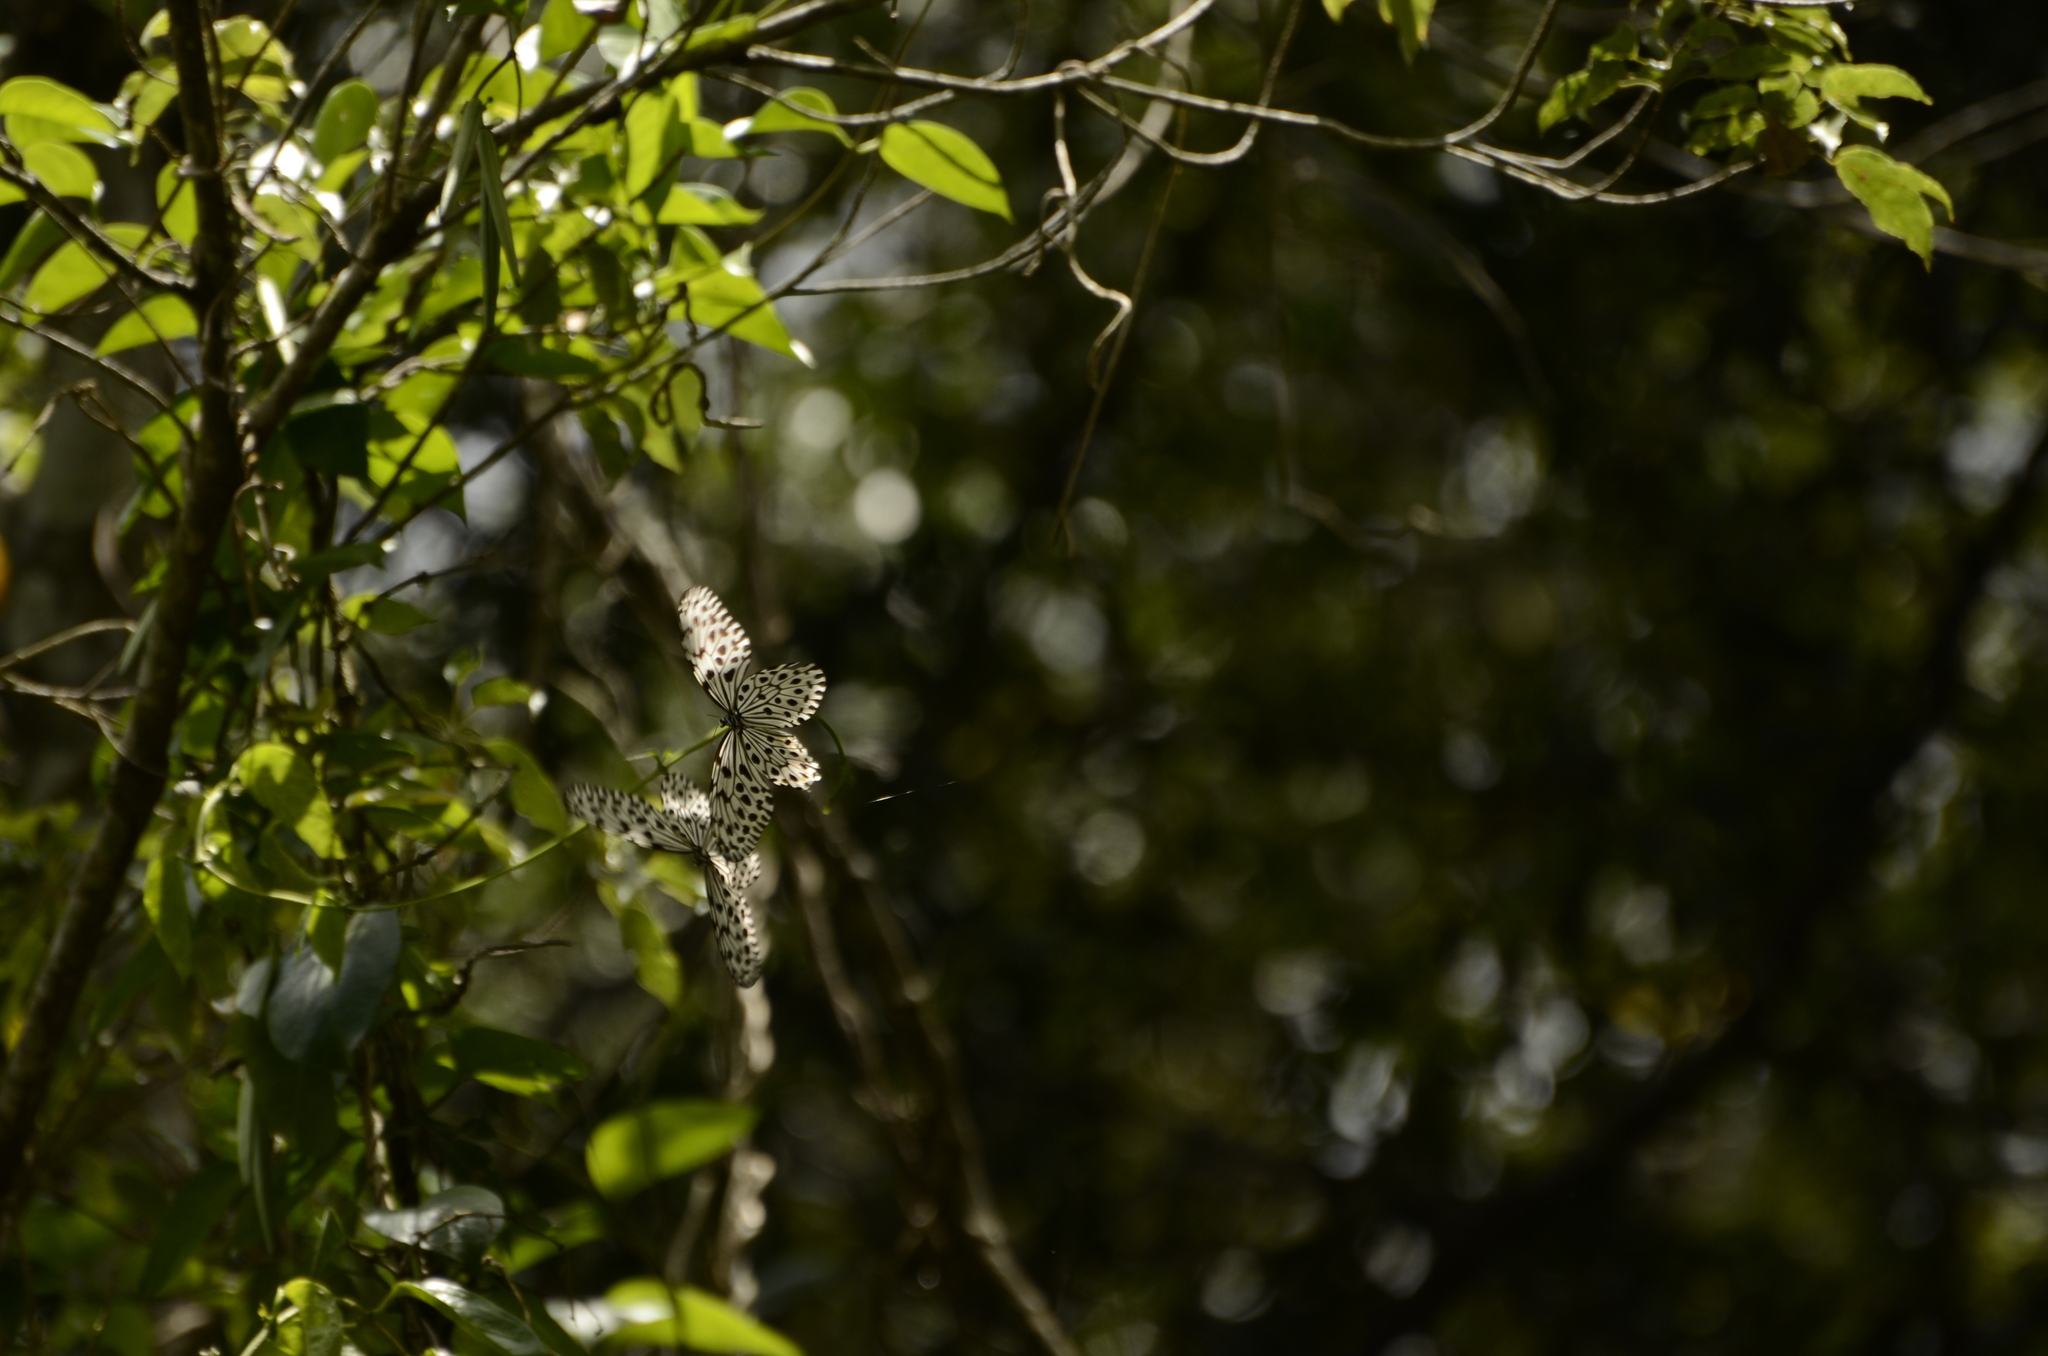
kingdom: Animalia
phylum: Arthropoda
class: Insecta
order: Lepidoptera
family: Nymphalidae
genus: Idea
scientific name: Idea malabarica
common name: Malabar tree-nymph
